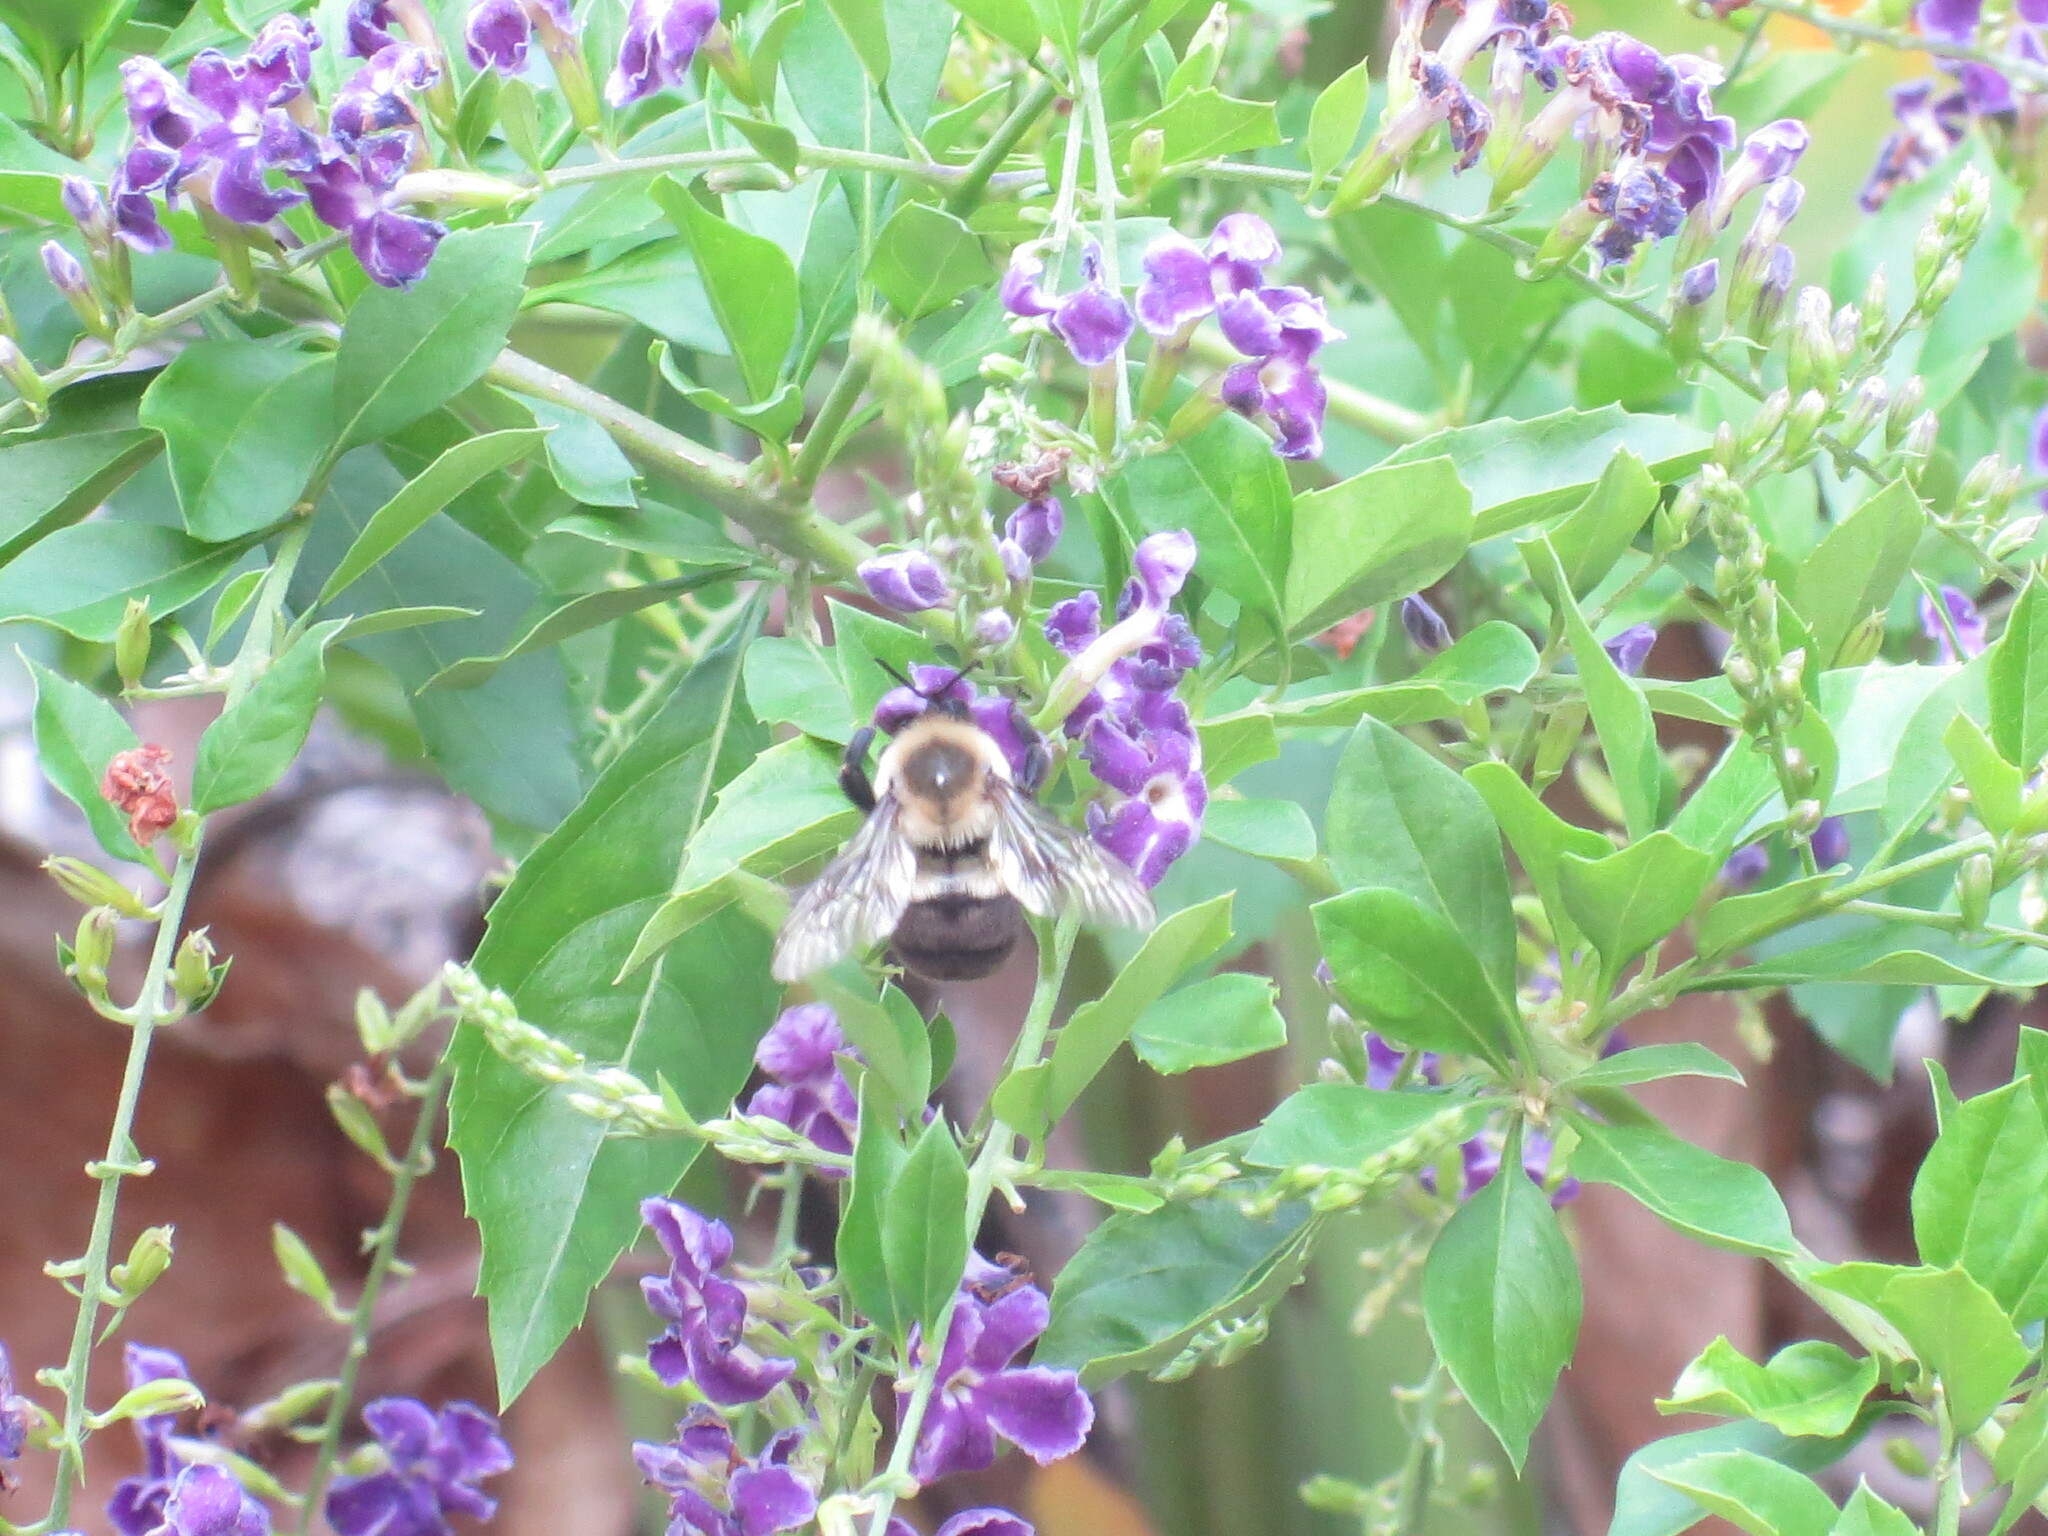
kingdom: Animalia
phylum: Arthropoda
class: Insecta
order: Hymenoptera
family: Apidae
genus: Bombus
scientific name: Bombus impatiens
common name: Common eastern bumble bee
